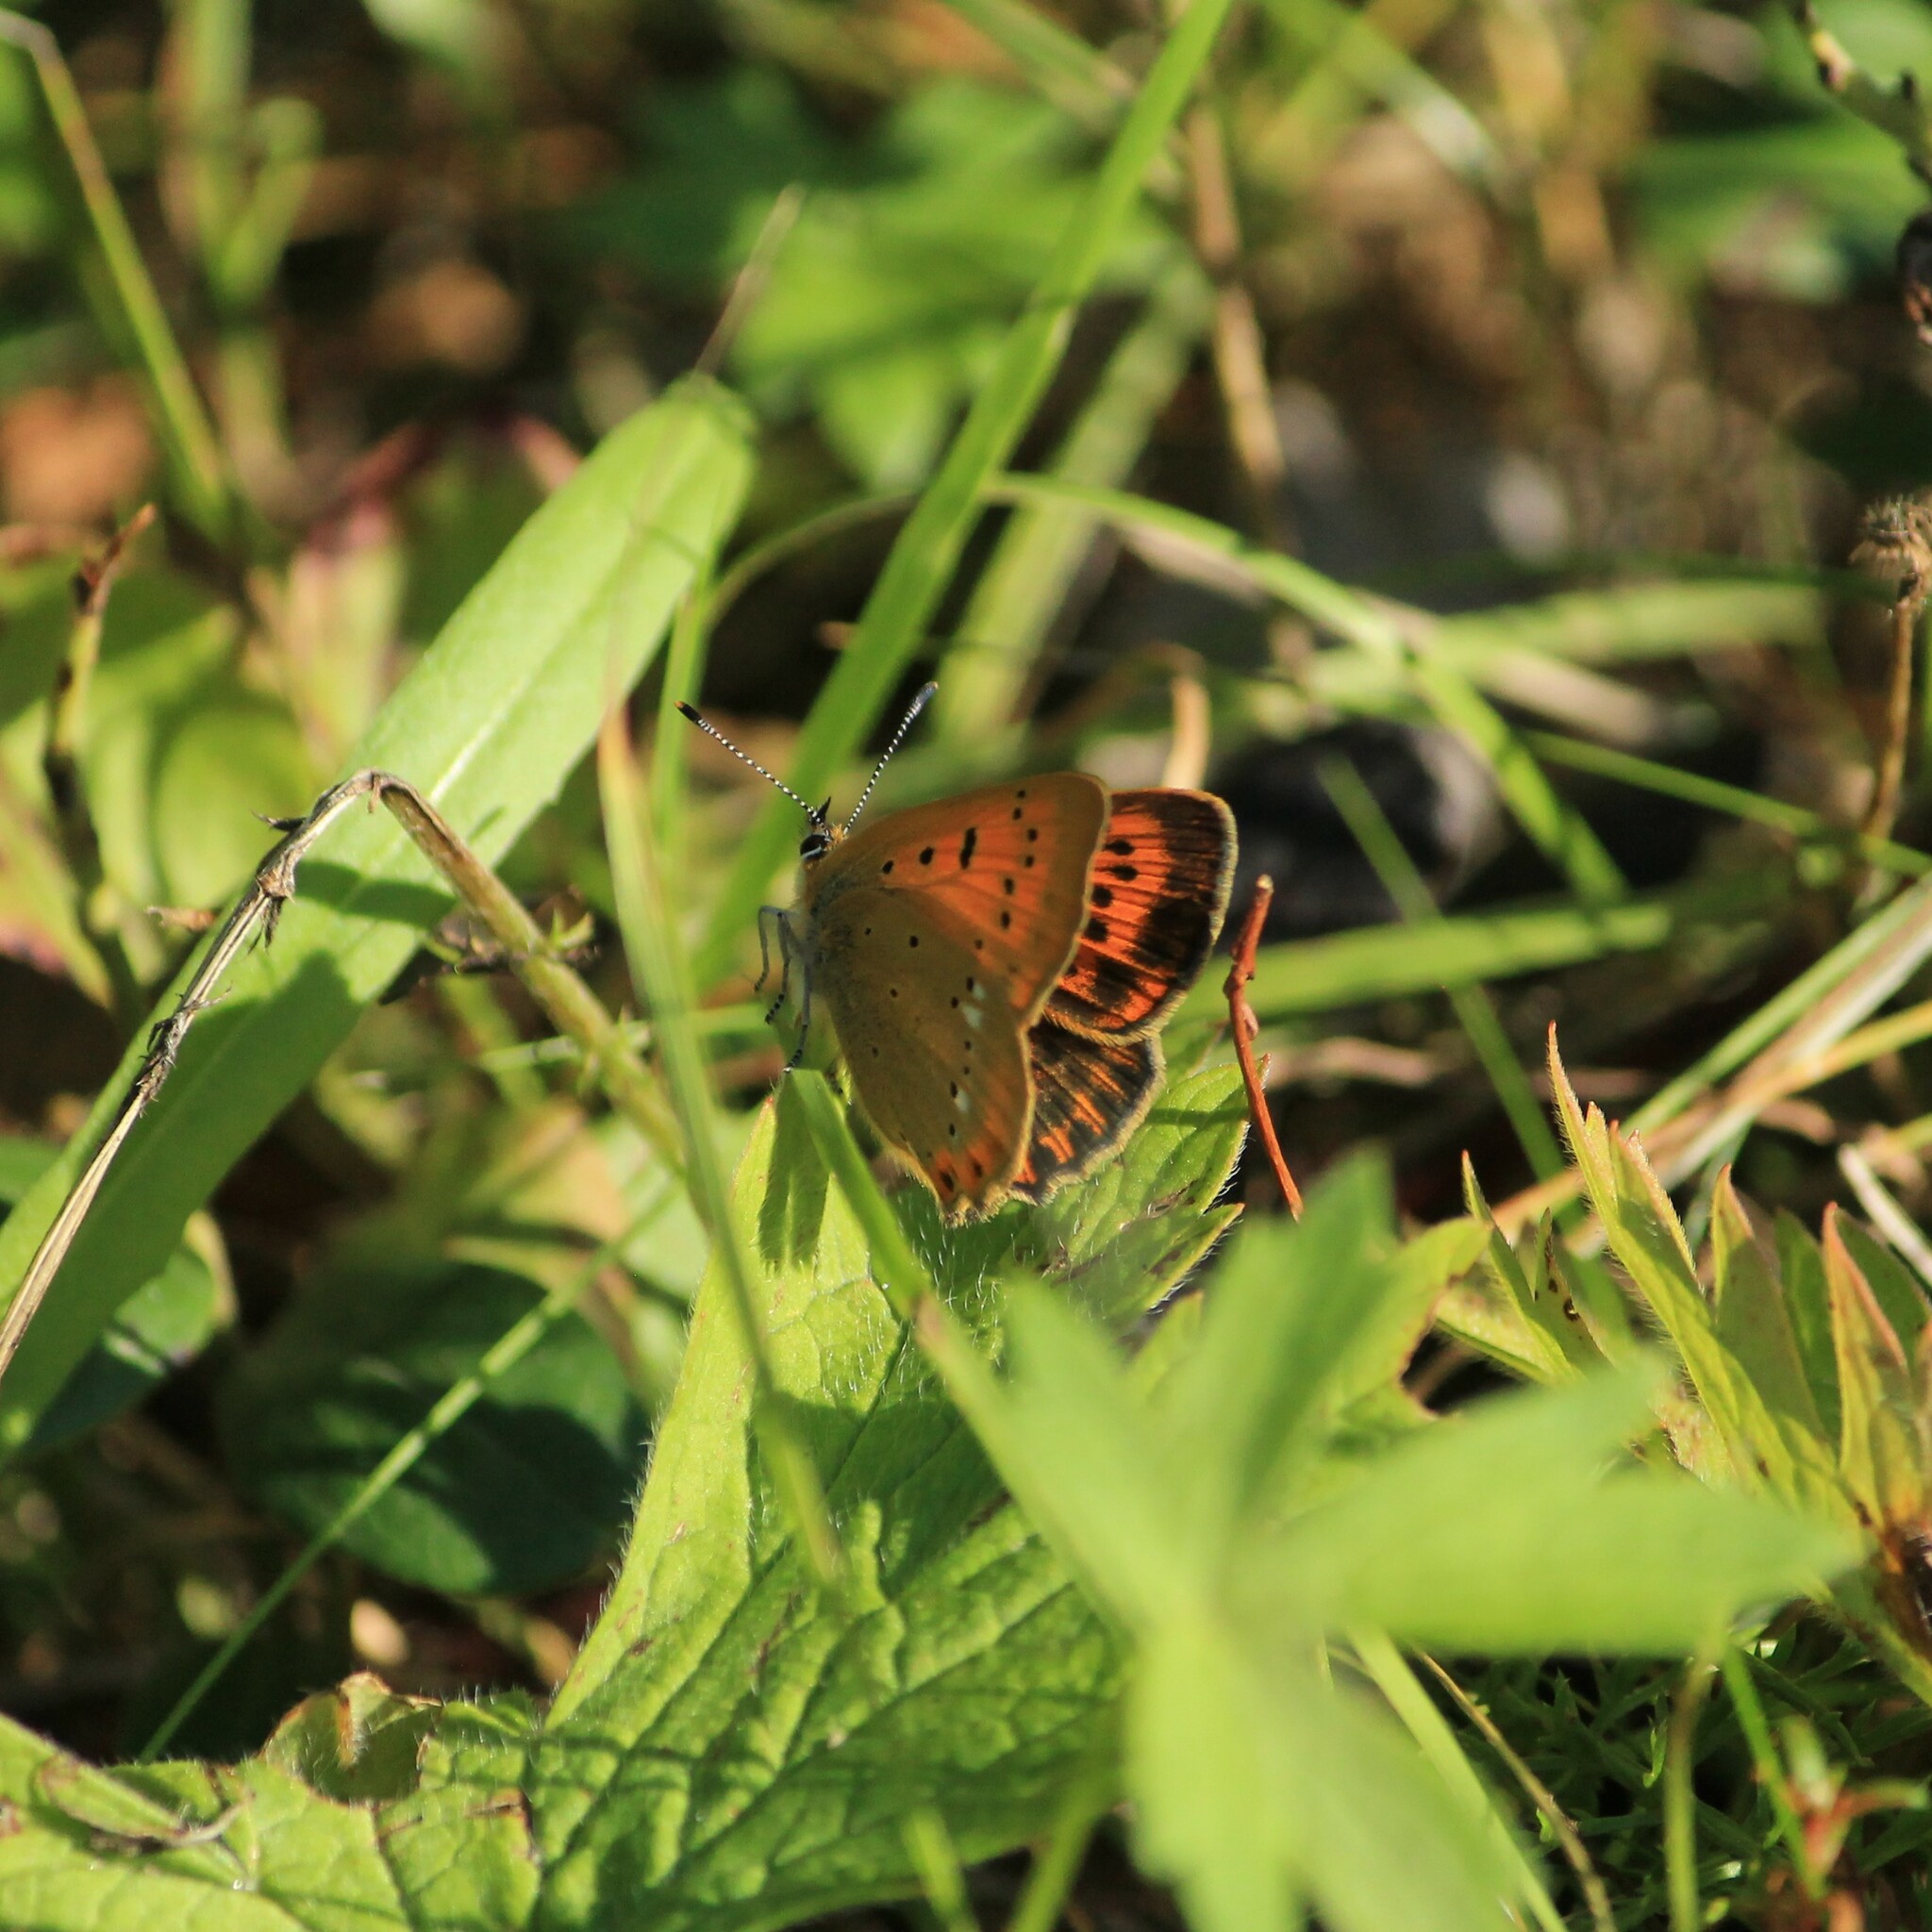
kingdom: Animalia
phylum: Arthropoda
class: Insecta
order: Lepidoptera
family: Lycaenidae
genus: Lycaena
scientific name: Lycaena virgaureae
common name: Scarce copper
